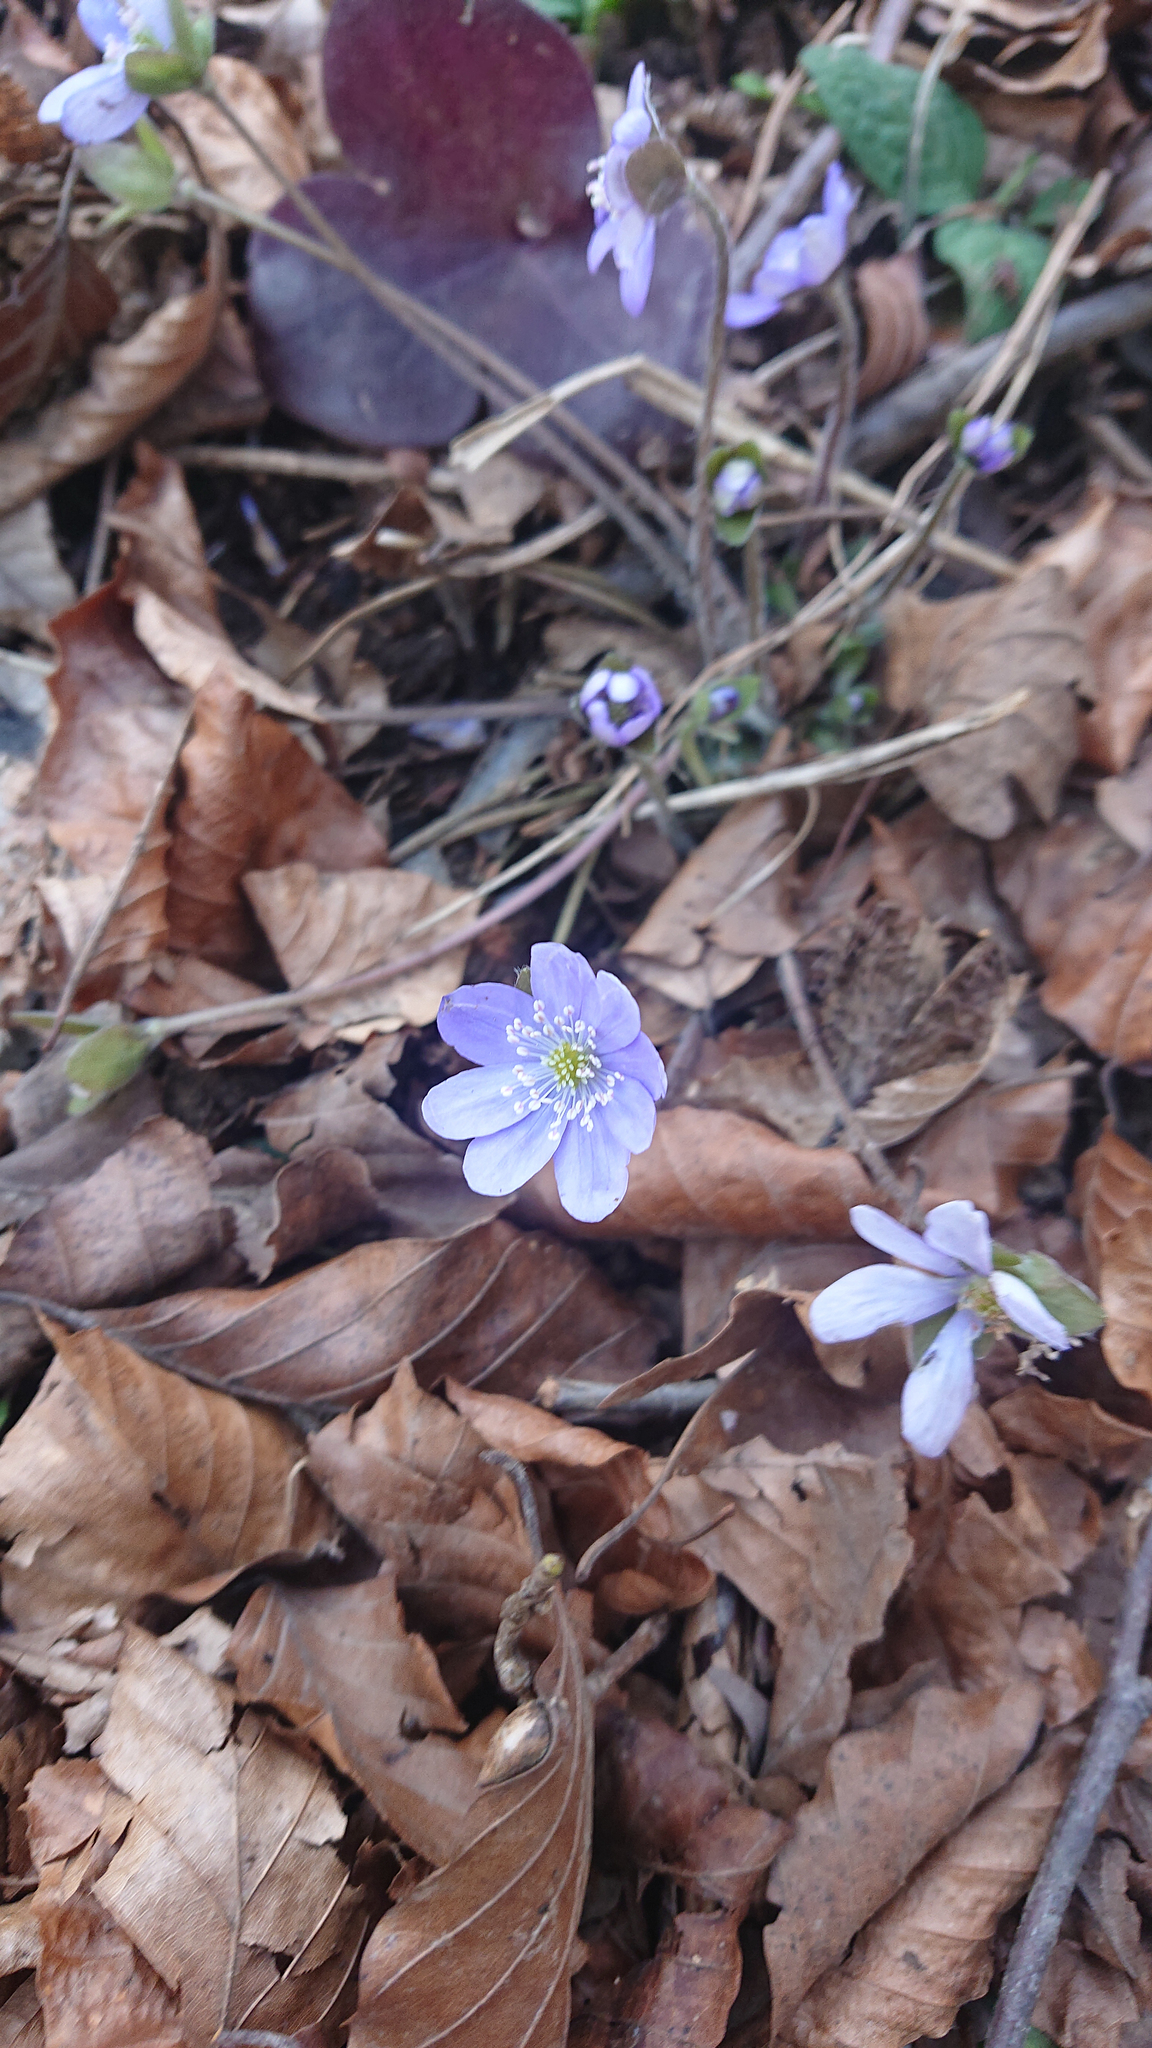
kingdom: Plantae
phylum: Tracheophyta
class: Magnoliopsida
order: Ranunculales
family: Ranunculaceae
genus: Hepatica
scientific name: Hepatica nobilis
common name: Liverleaf
